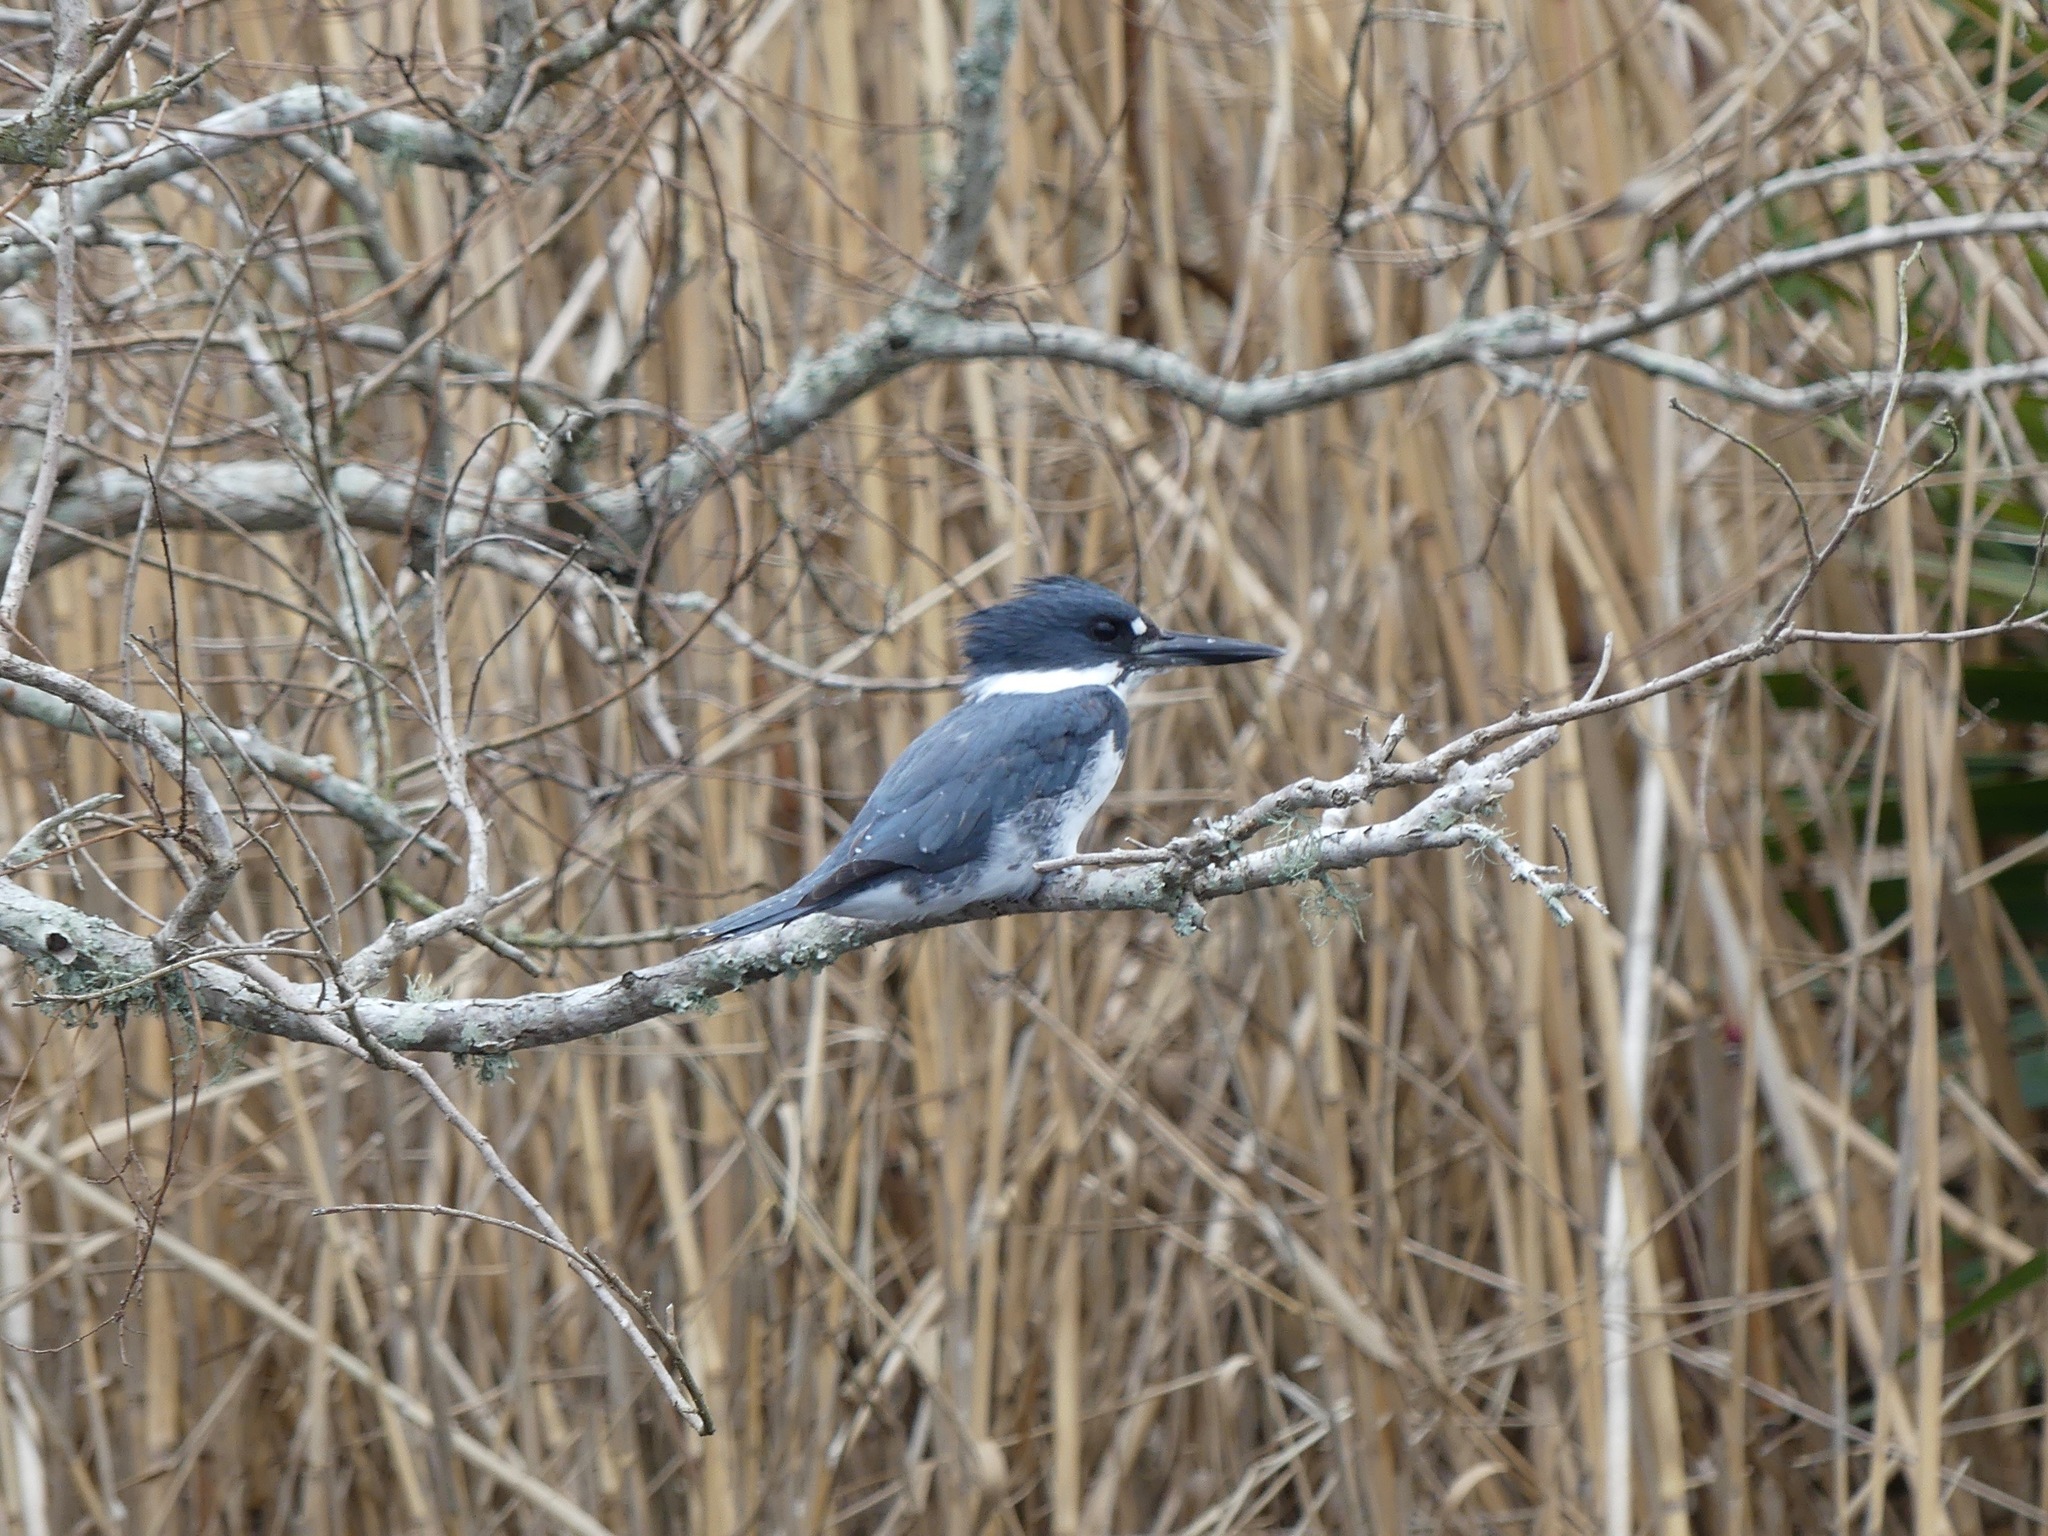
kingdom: Animalia
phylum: Chordata
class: Aves
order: Coraciiformes
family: Alcedinidae
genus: Megaceryle
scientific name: Megaceryle alcyon
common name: Belted kingfisher
